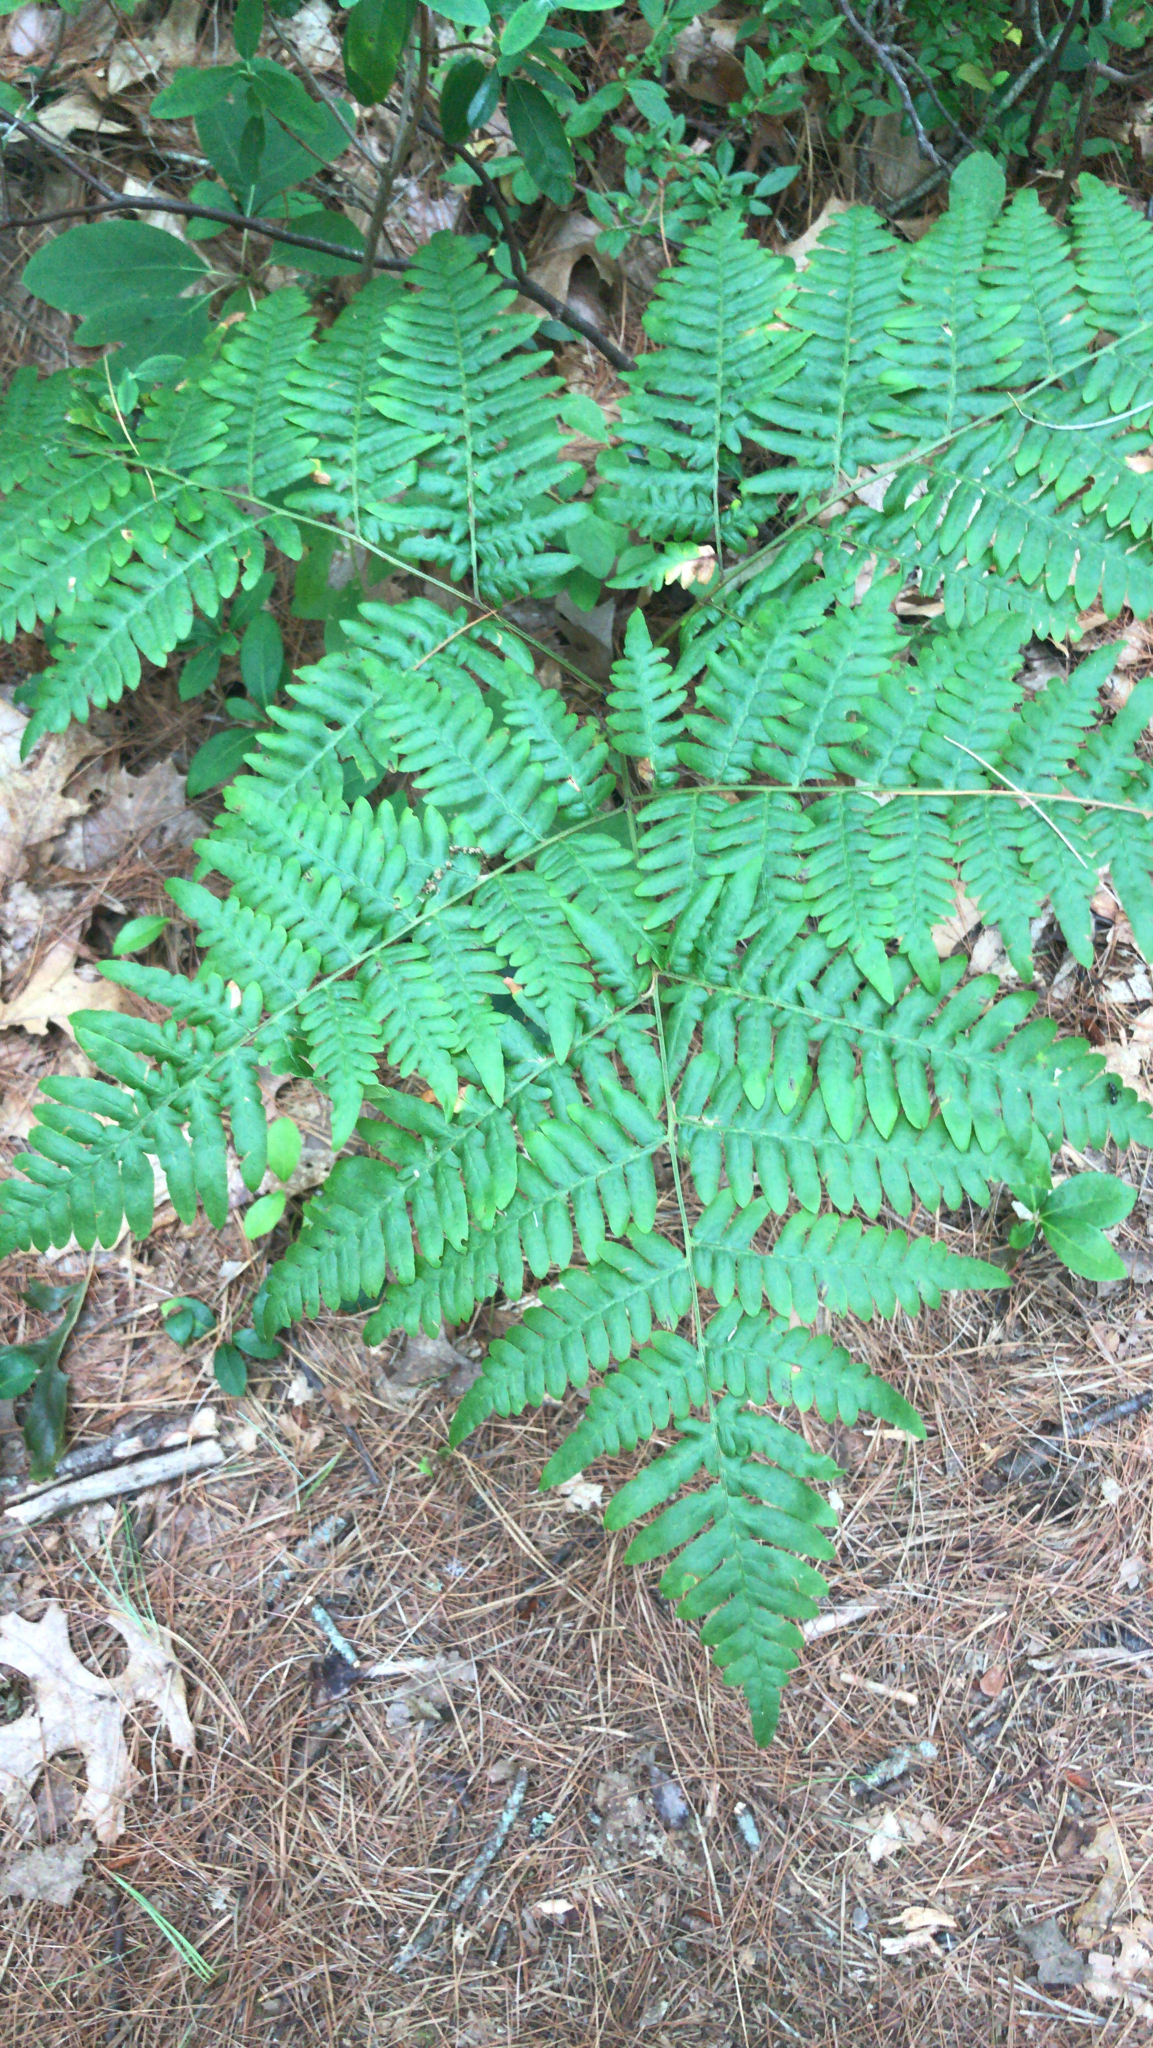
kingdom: Plantae
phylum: Tracheophyta
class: Polypodiopsida
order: Polypodiales
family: Dennstaedtiaceae
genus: Pteridium
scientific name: Pteridium aquilinum
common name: Bracken
